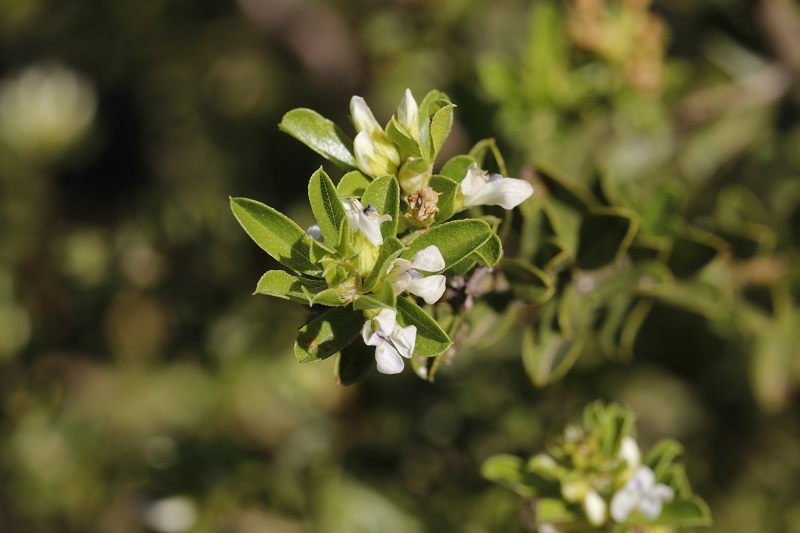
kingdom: Plantae
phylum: Tracheophyta
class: Magnoliopsida
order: Fabales
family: Fabaceae
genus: Psoralea
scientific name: Psoralea prodiens
